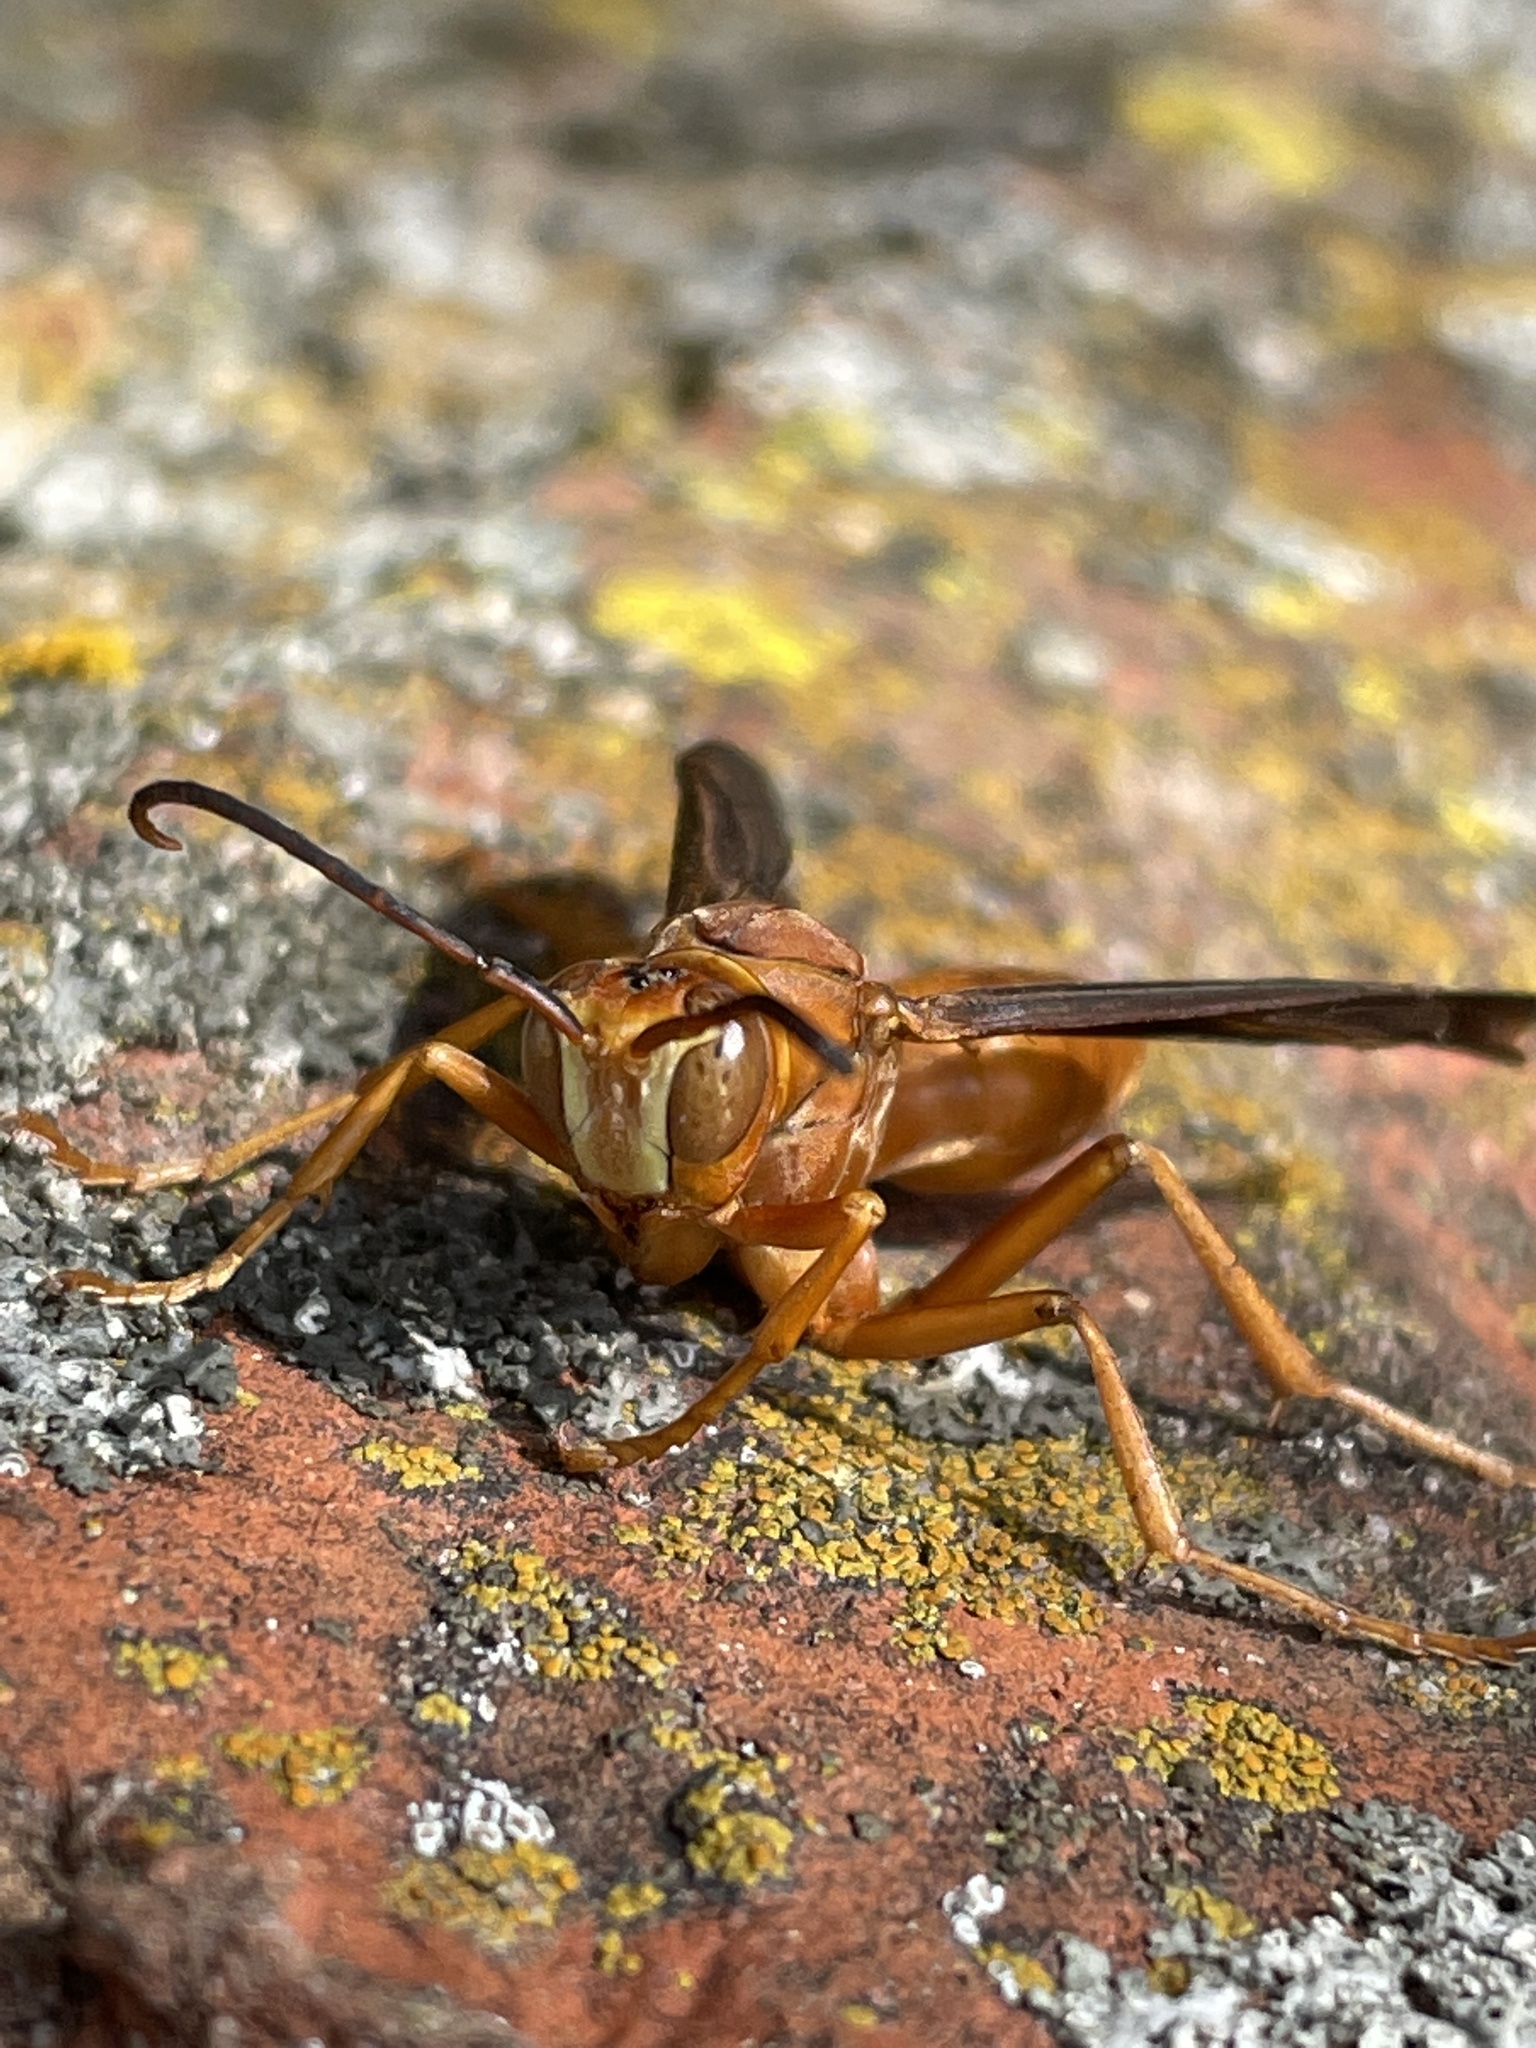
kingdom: Animalia
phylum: Arthropoda
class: Insecta
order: Hymenoptera
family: Eumenidae
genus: Polistes
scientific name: Polistes carolina
